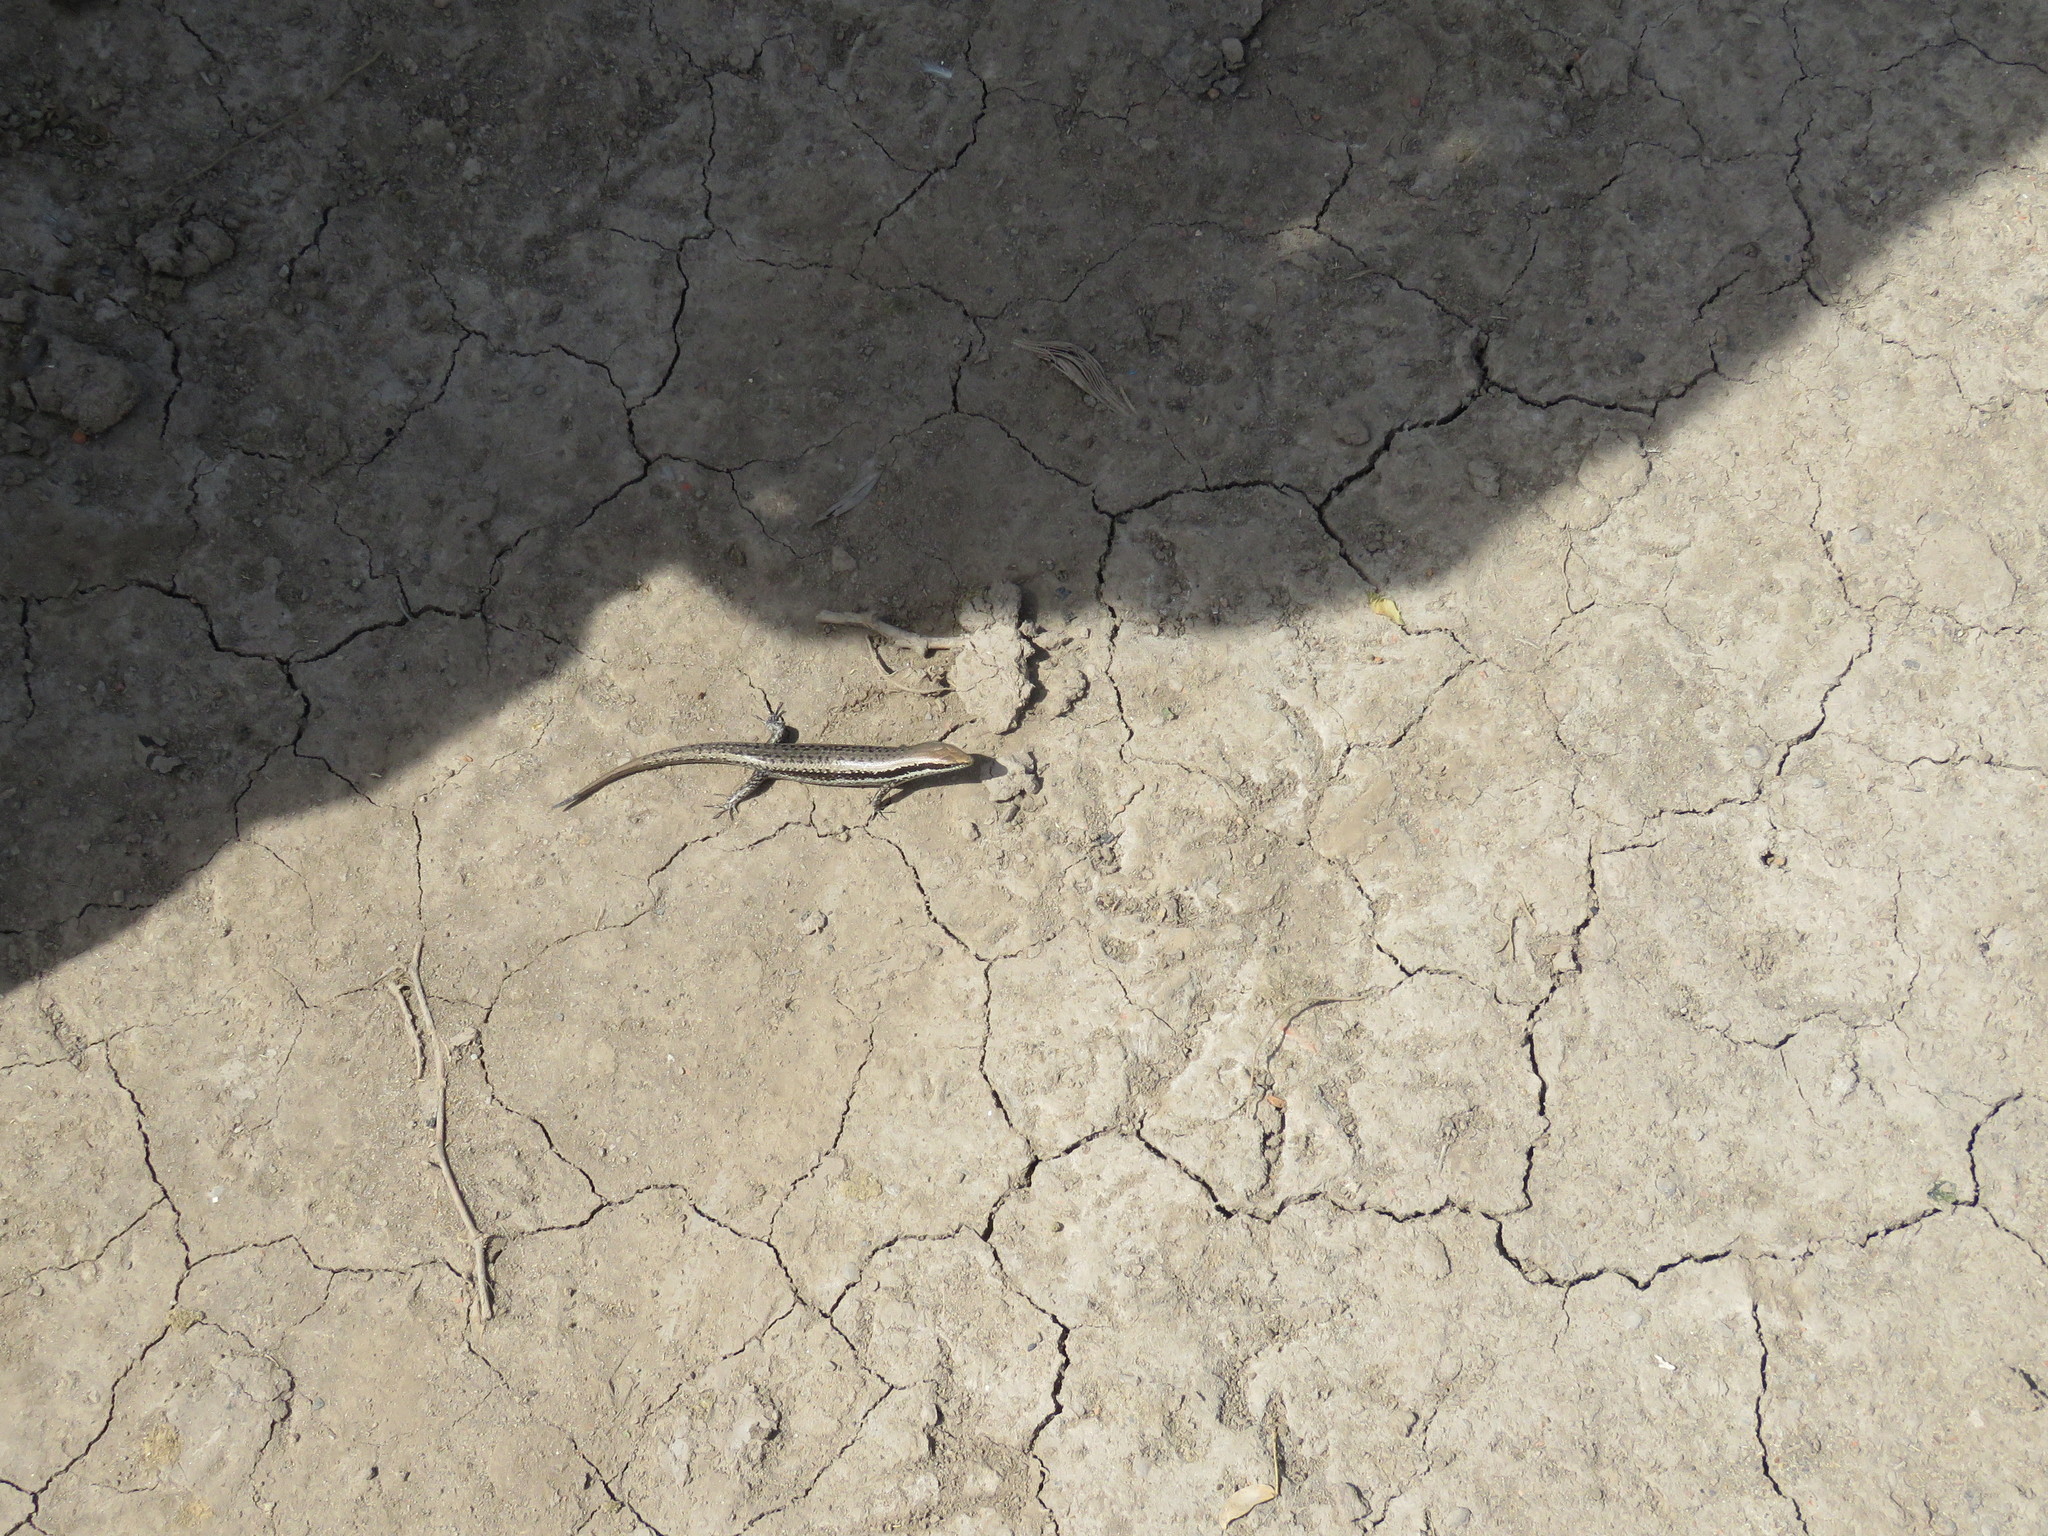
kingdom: Animalia
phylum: Chordata
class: Squamata
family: Scincidae
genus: Notomabuya
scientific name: Notomabuya frenata
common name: Cope's mabuya
